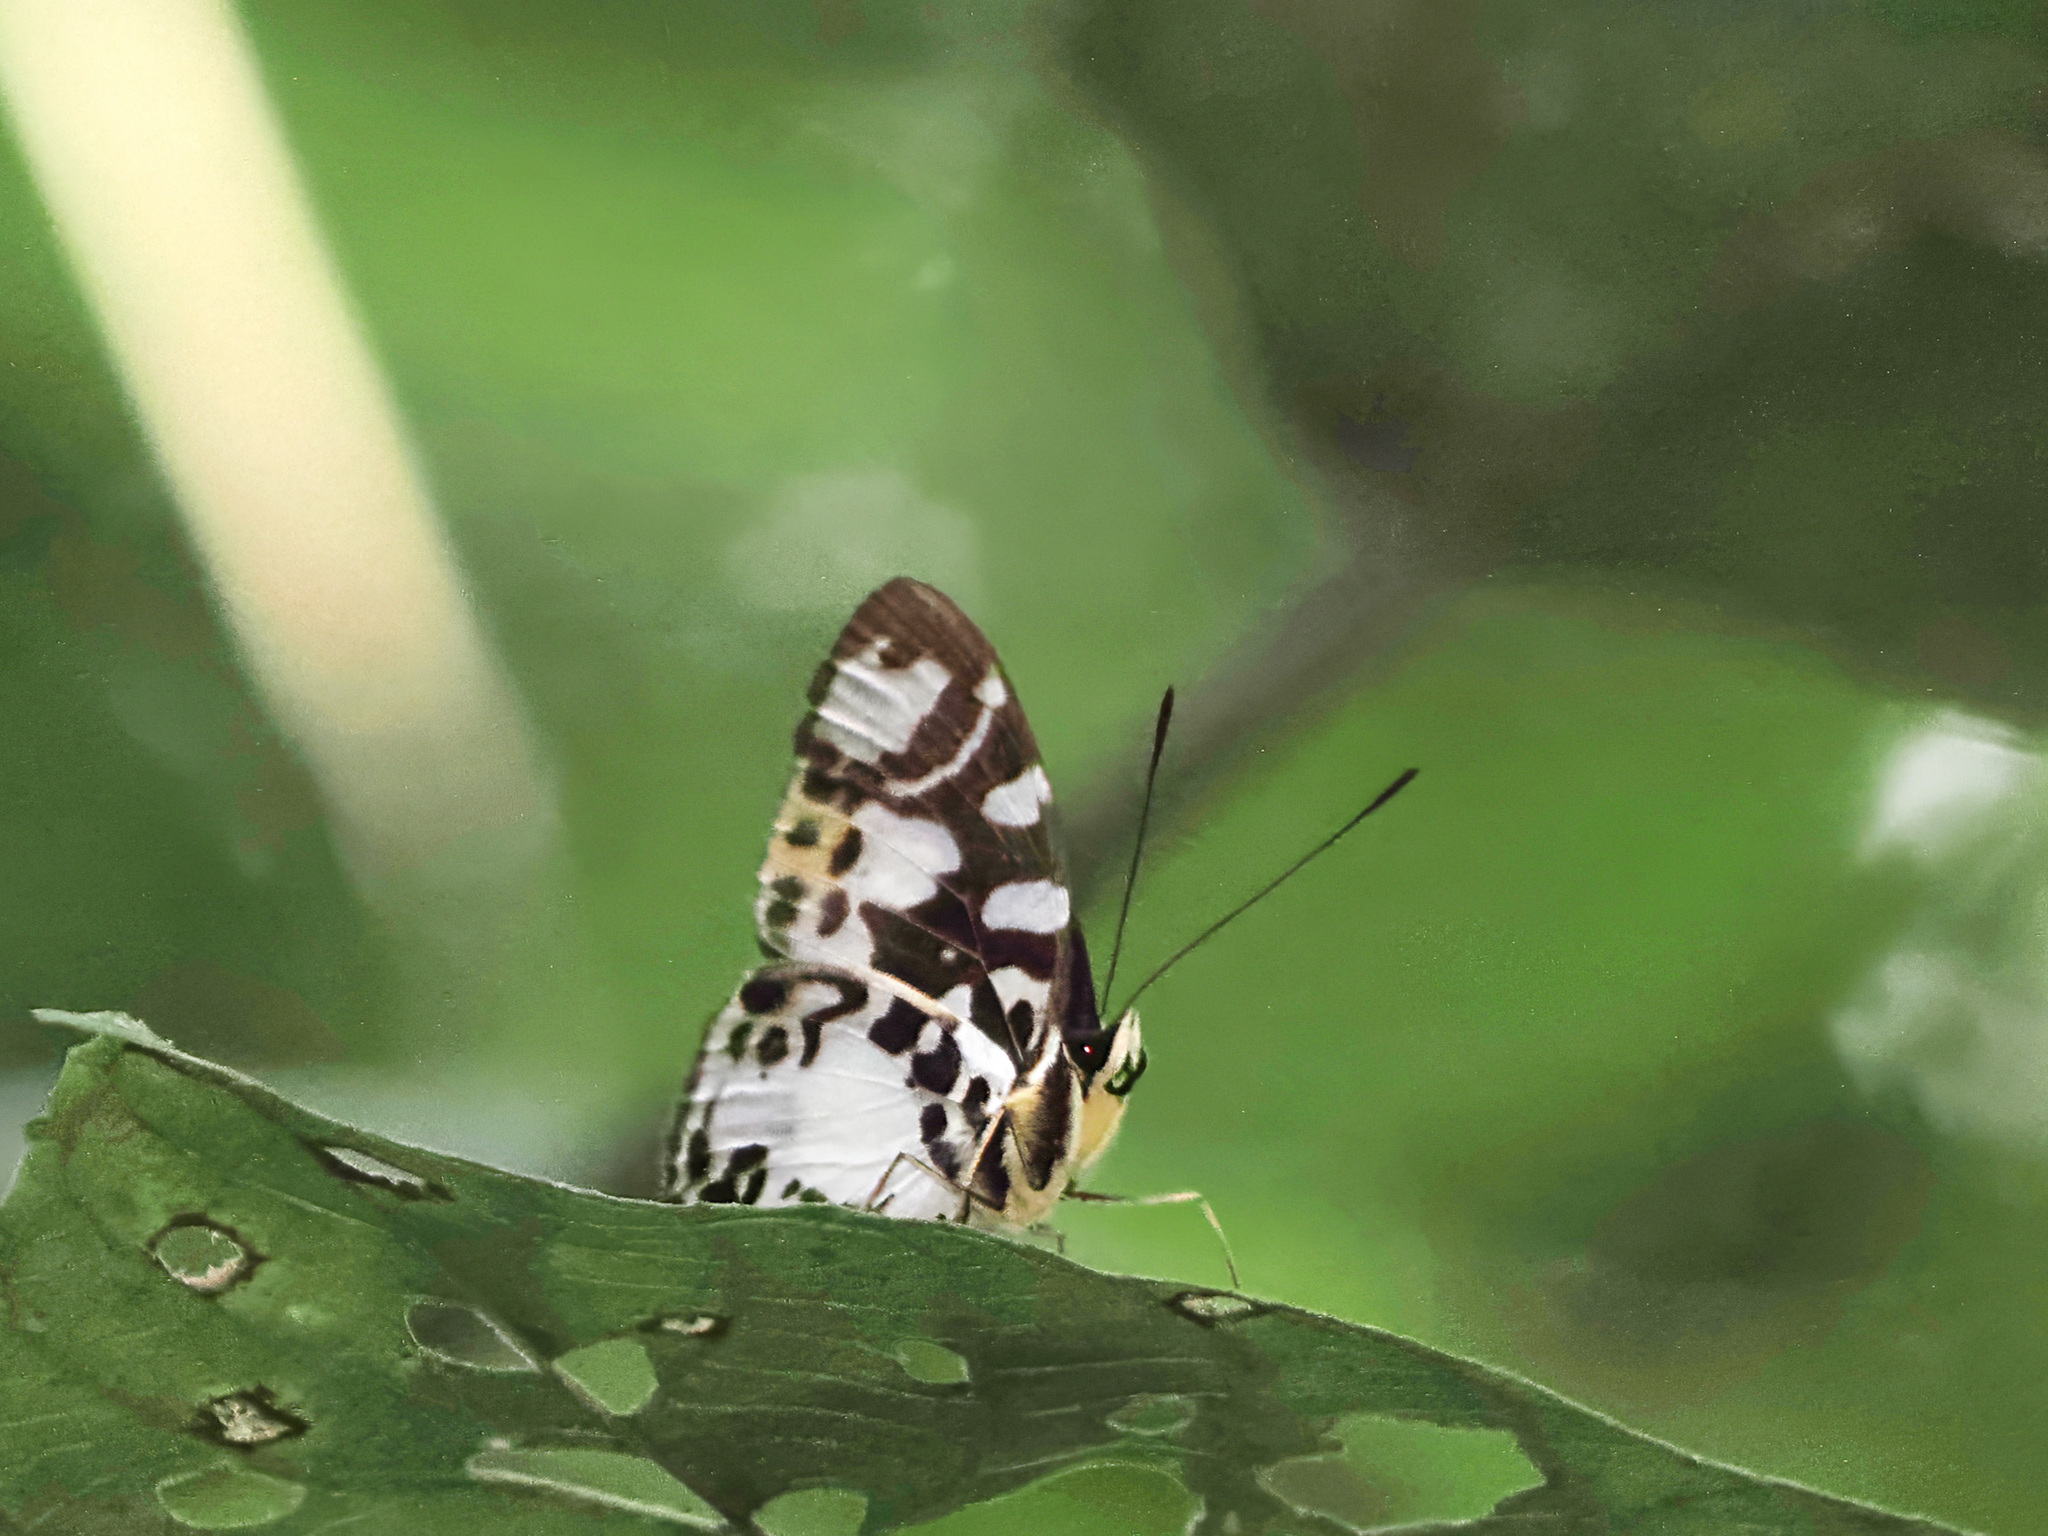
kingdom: Animalia
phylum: Arthropoda
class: Insecta
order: Lepidoptera
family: Nymphalidae
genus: Symbrenthia
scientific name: Symbrenthia hippalus
